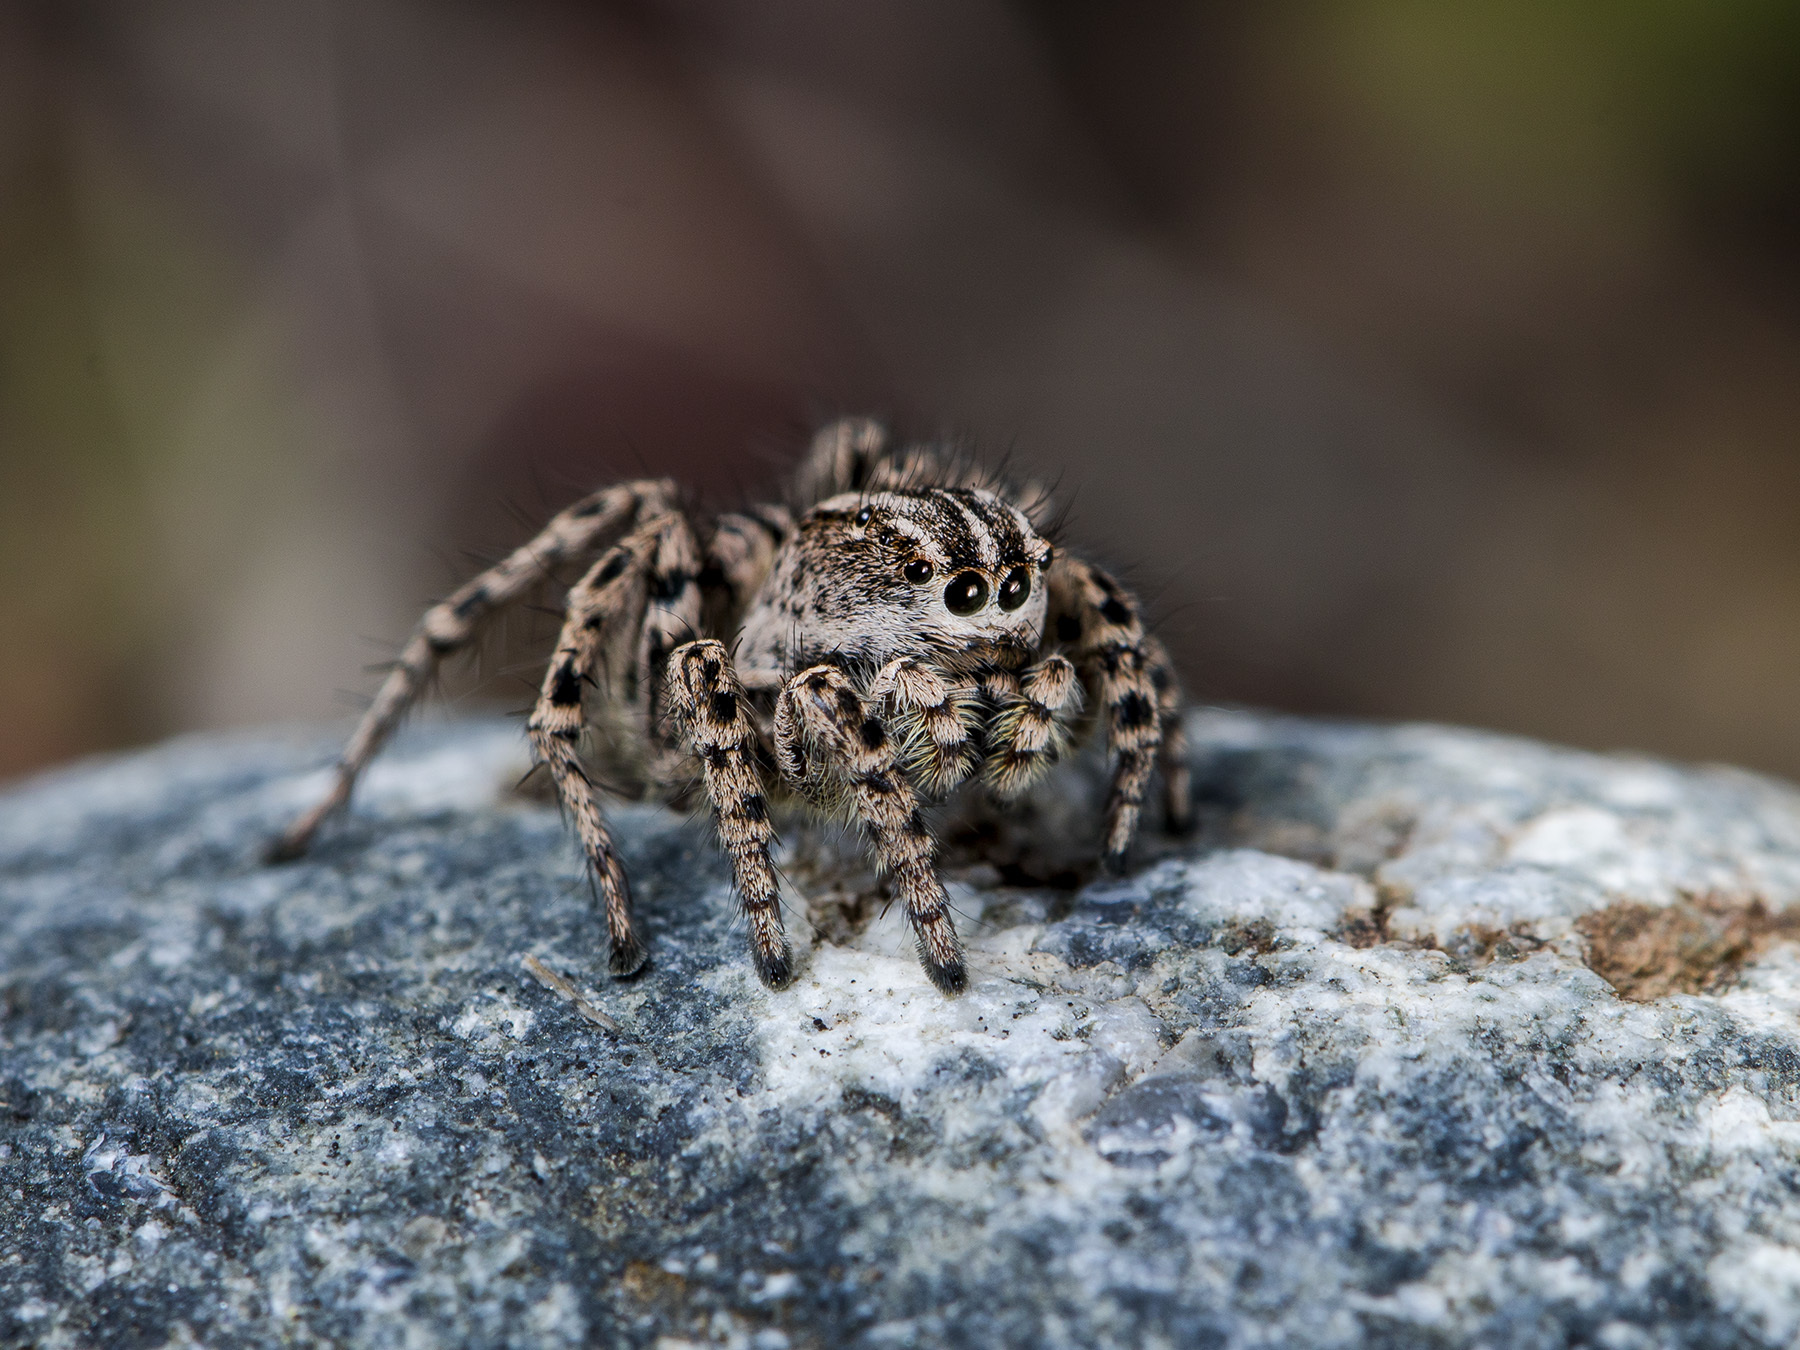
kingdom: Animalia
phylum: Arthropoda
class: Arachnida
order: Araneae
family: Salticidae
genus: Aelurillus
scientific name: Aelurillus m-nigrum
